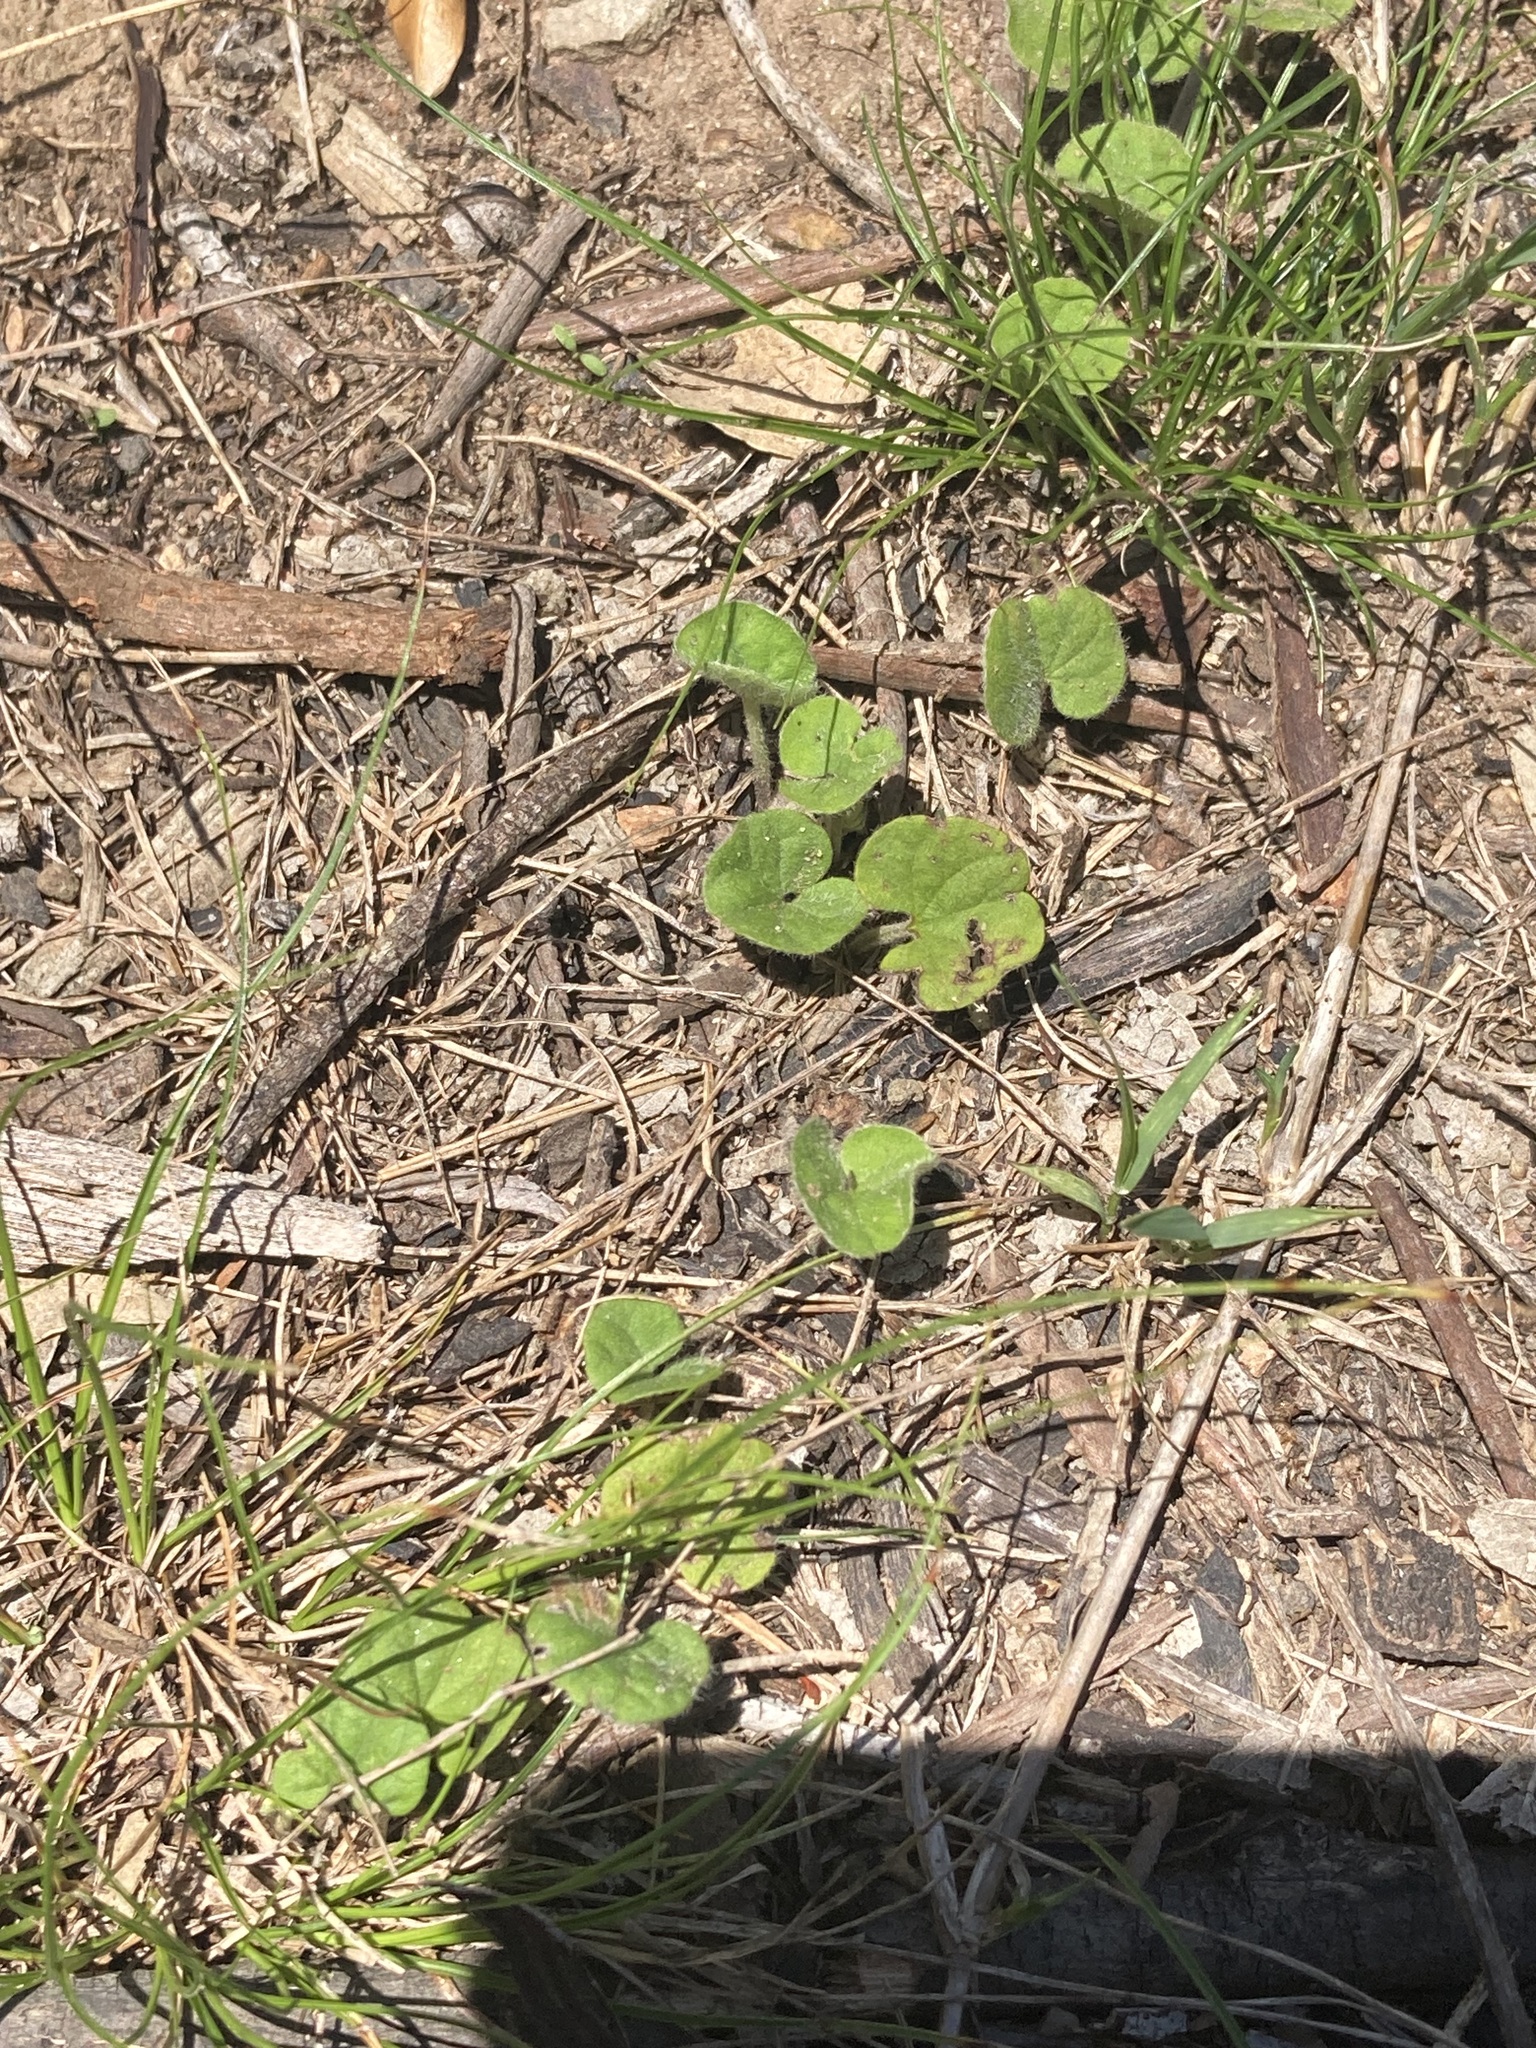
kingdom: Plantae
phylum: Tracheophyta
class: Magnoliopsida
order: Solanales
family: Convolvulaceae
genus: Dichondra
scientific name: Dichondra repens
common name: Kidneyweed
